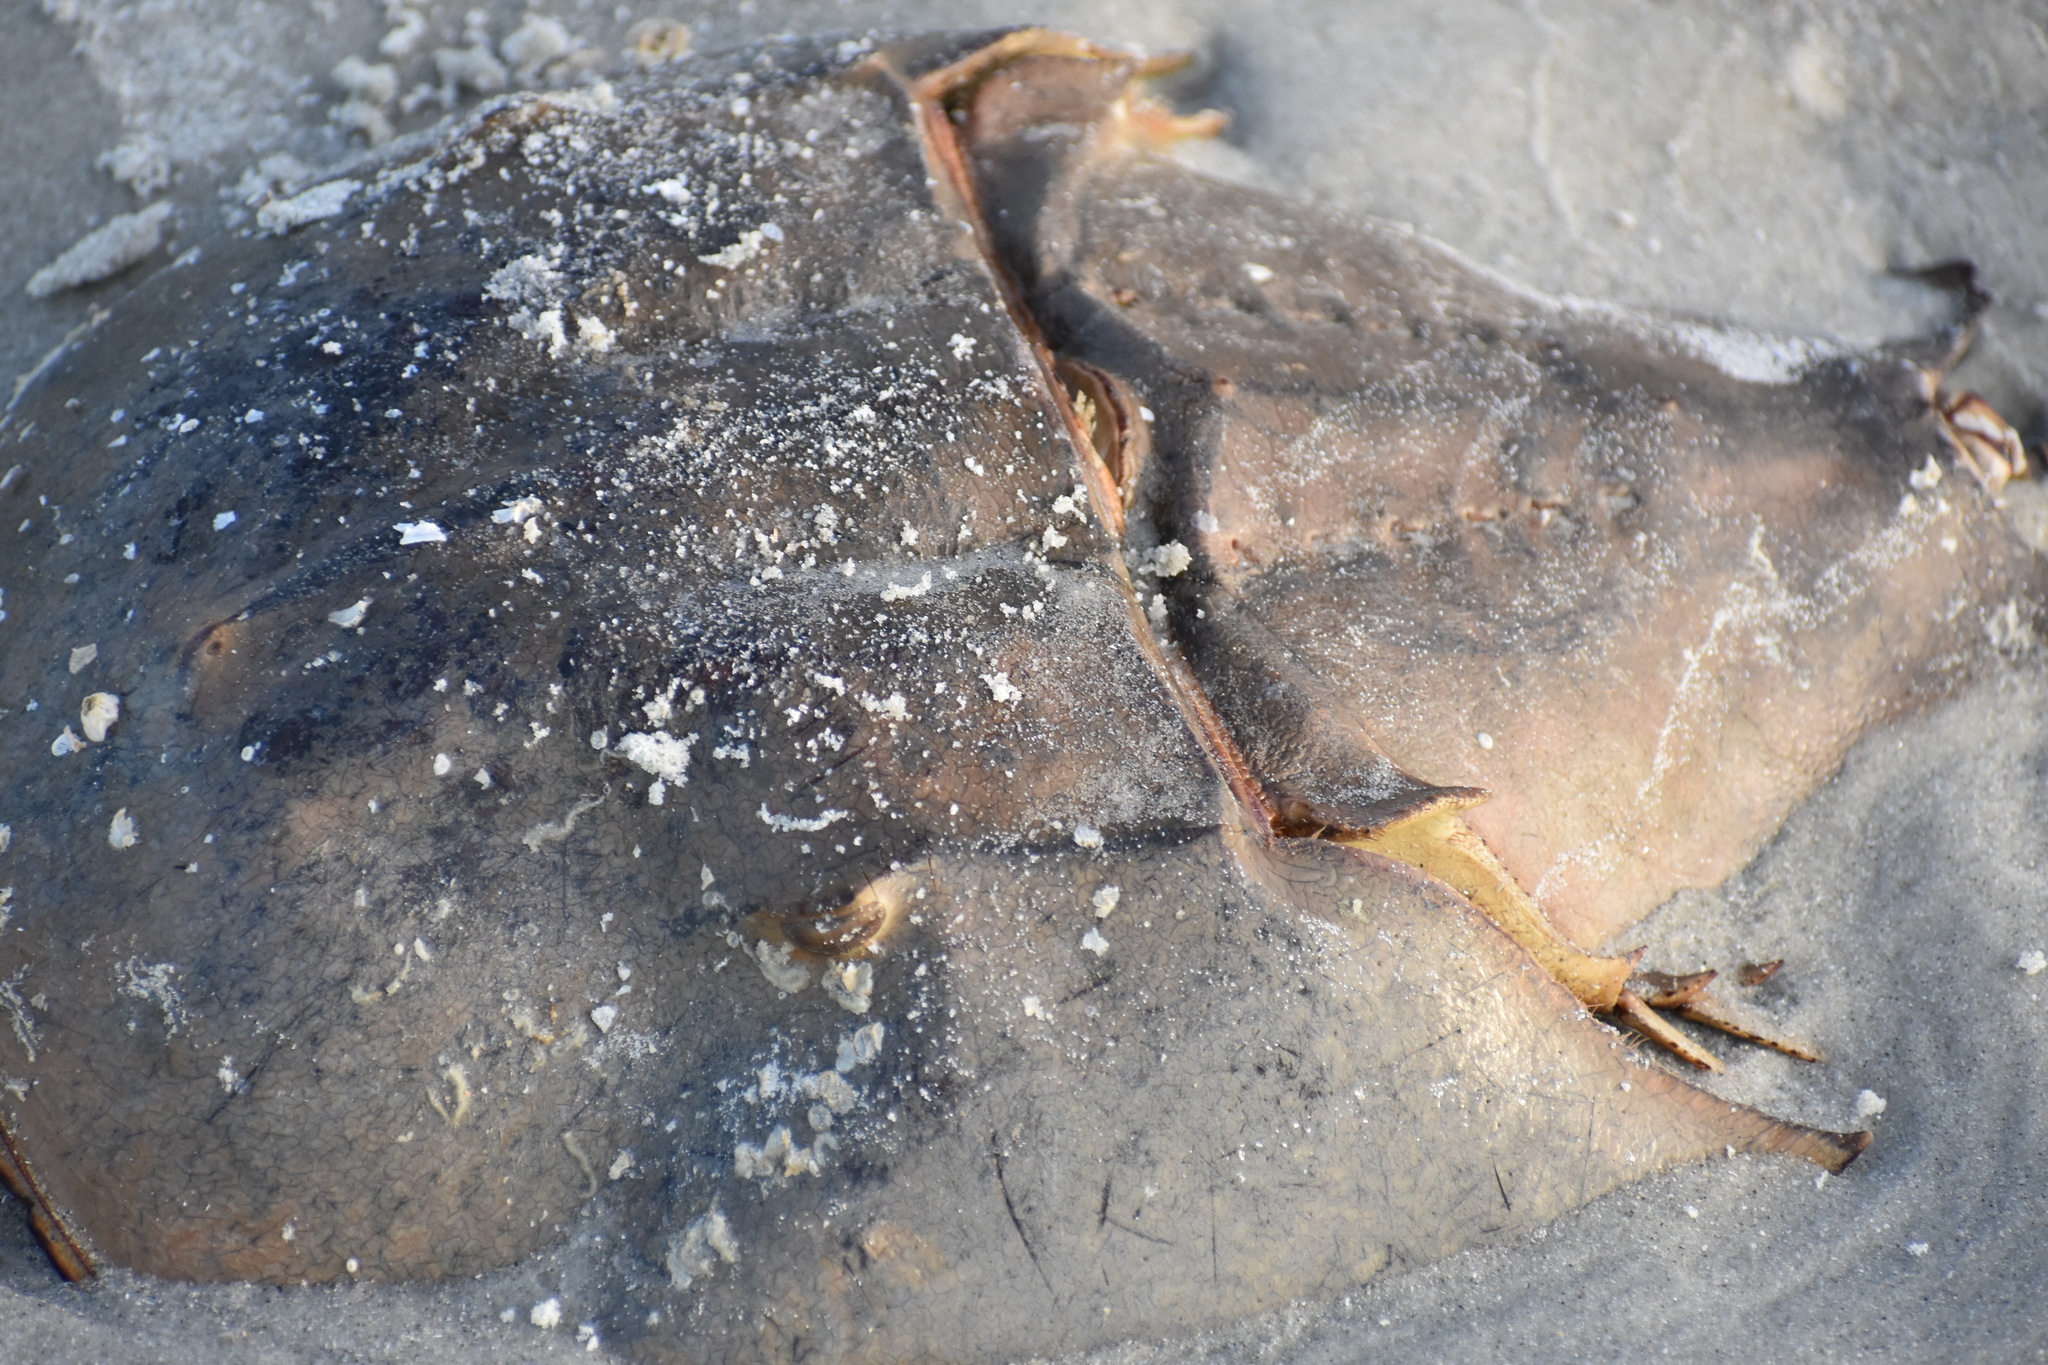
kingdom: Animalia
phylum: Arthropoda
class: Merostomata
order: Xiphosurida
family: Limulidae
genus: Limulus
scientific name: Limulus polyphemus
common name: Horseshoe crab
